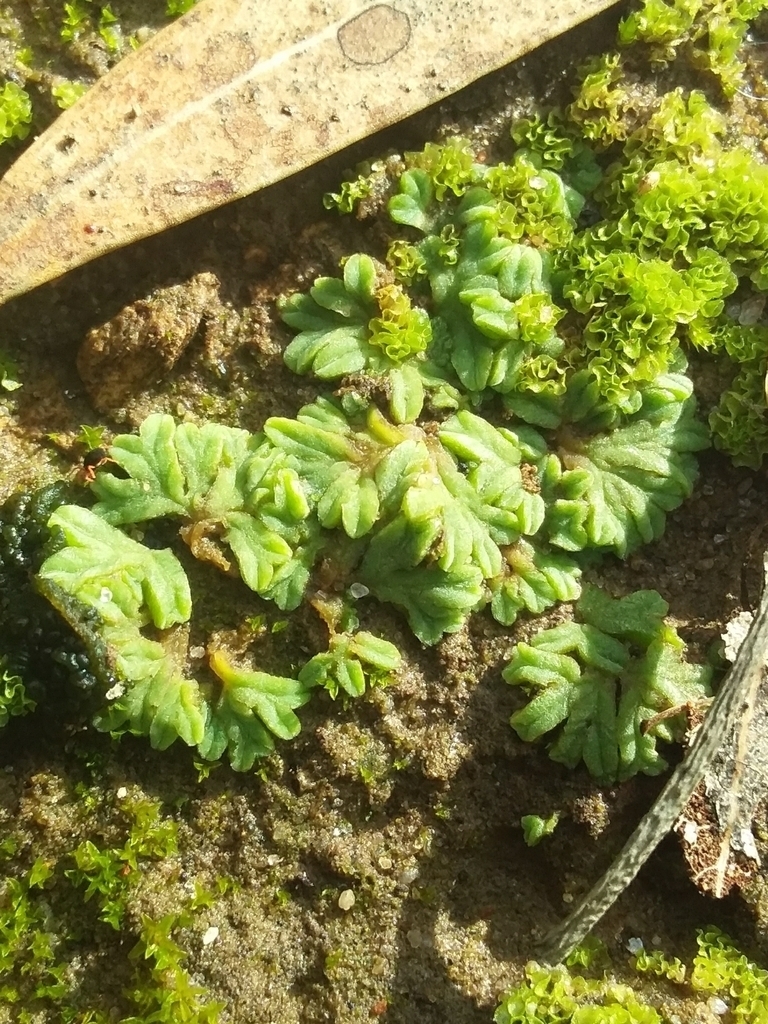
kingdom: Plantae
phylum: Marchantiophyta
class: Marchantiopsida
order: Marchantiales
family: Ricciaceae
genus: Riccia
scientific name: Riccia sorocarpa
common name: Common crystalwort
